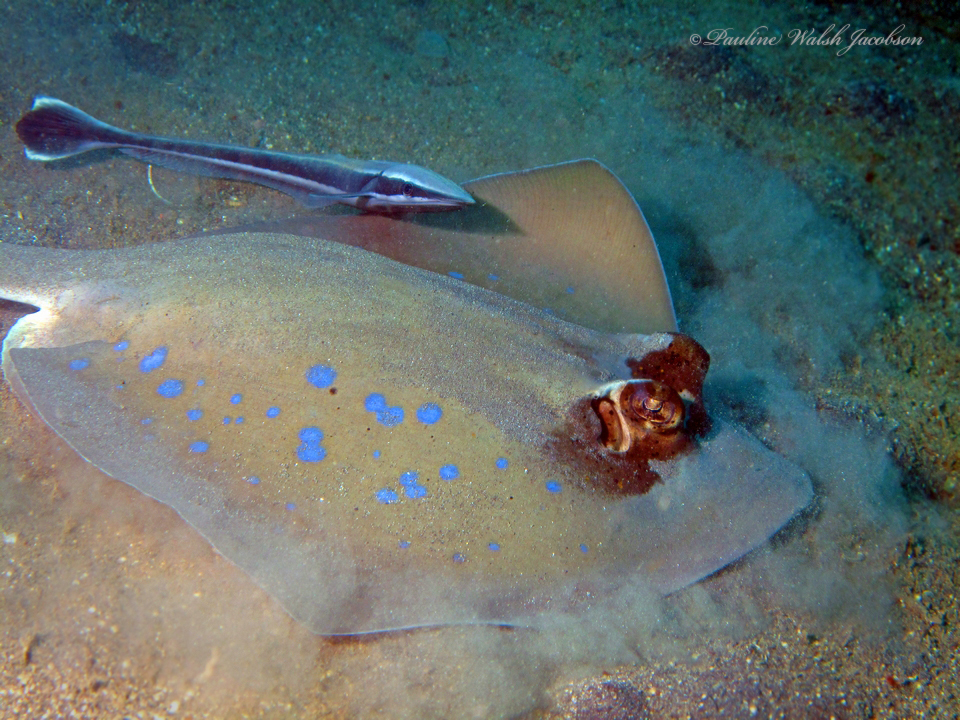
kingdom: Animalia
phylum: Chordata
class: Elasmobranchii
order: Myliobatiformes
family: Dasyatidae
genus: Neotrygon
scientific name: Neotrygon orientale
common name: Oriental bluespotted maskray
